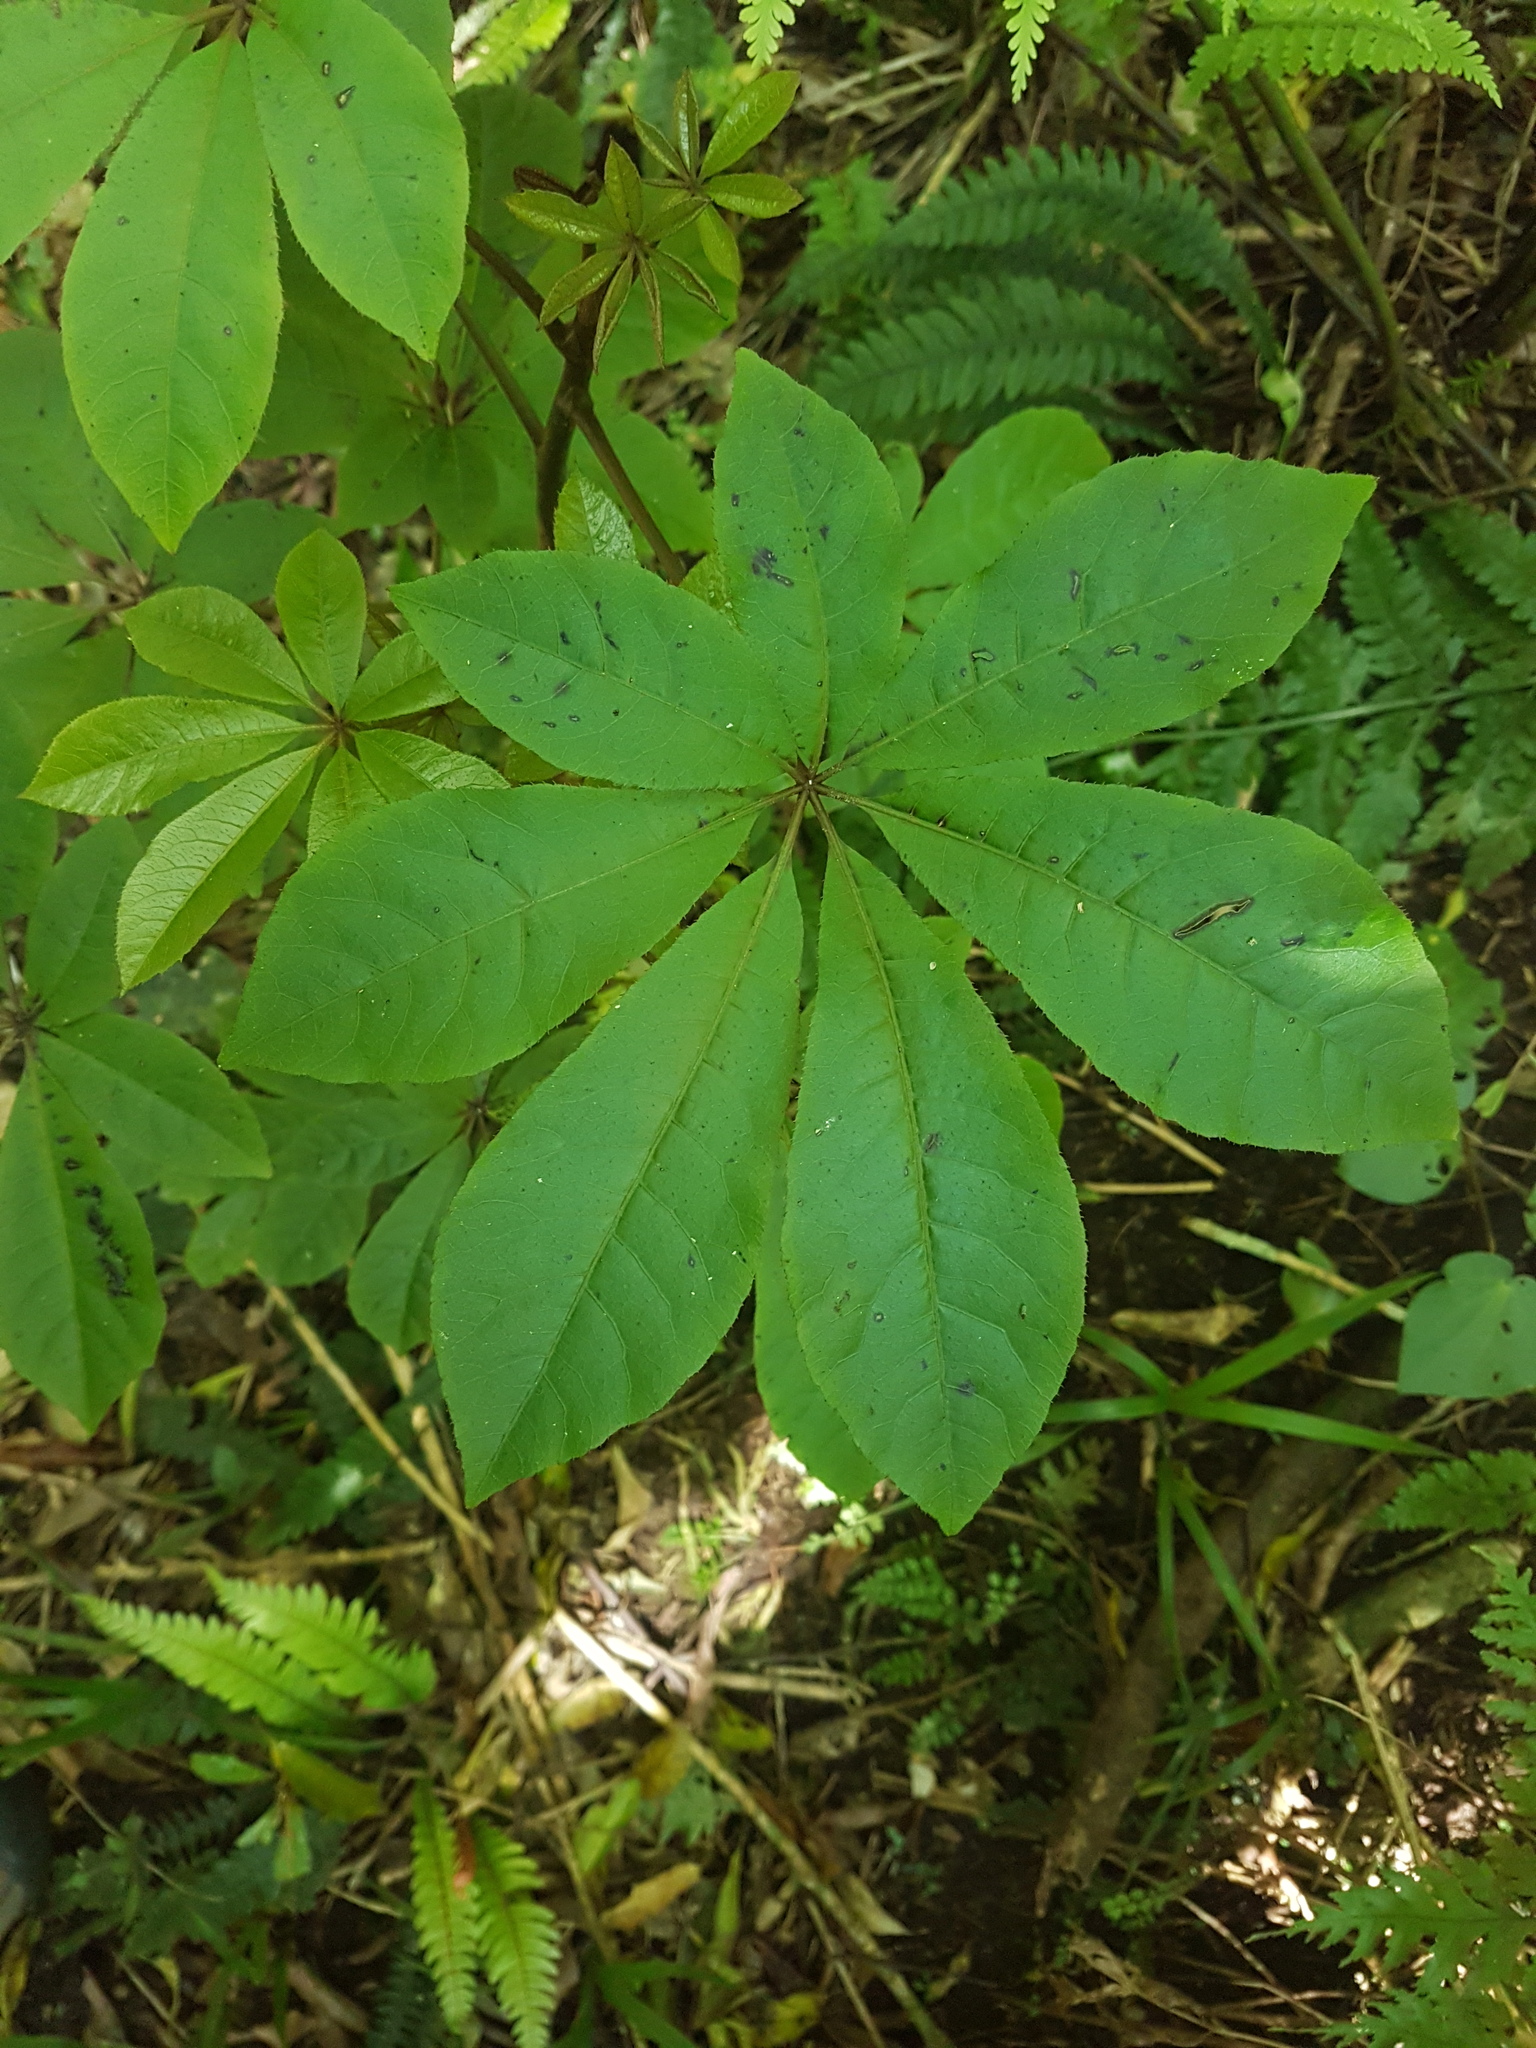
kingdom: Plantae
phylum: Tracheophyta
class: Magnoliopsida
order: Apiales
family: Araliaceae
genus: Schefflera
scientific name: Schefflera digitata
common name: Pate
